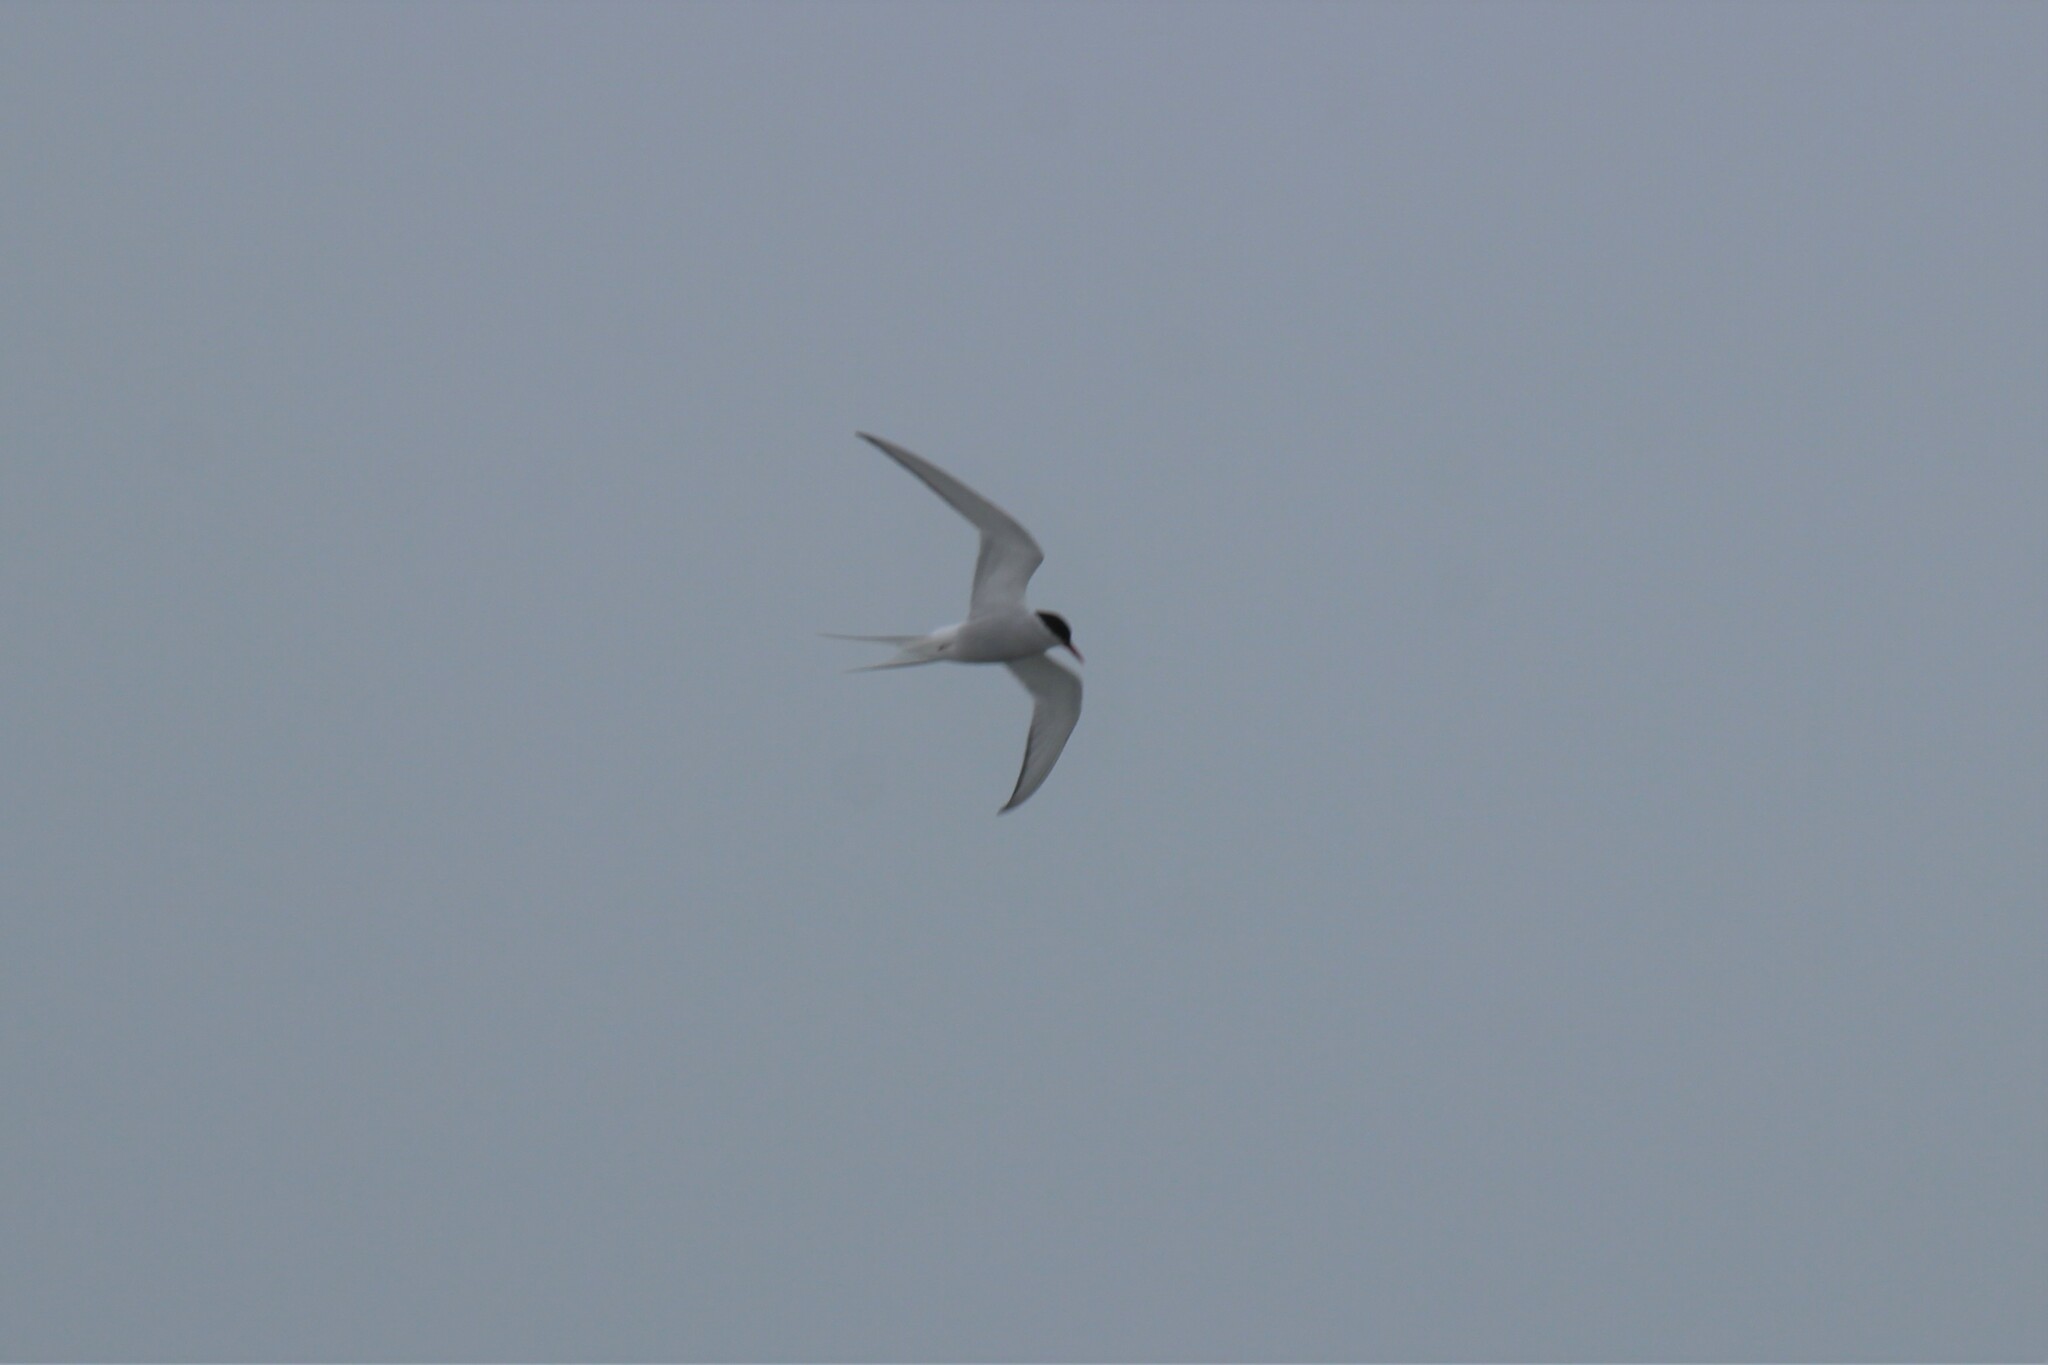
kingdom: Animalia
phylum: Chordata
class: Aves
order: Charadriiformes
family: Laridae
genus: Sterna
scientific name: Sterna paradisaea
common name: Arctic tern
